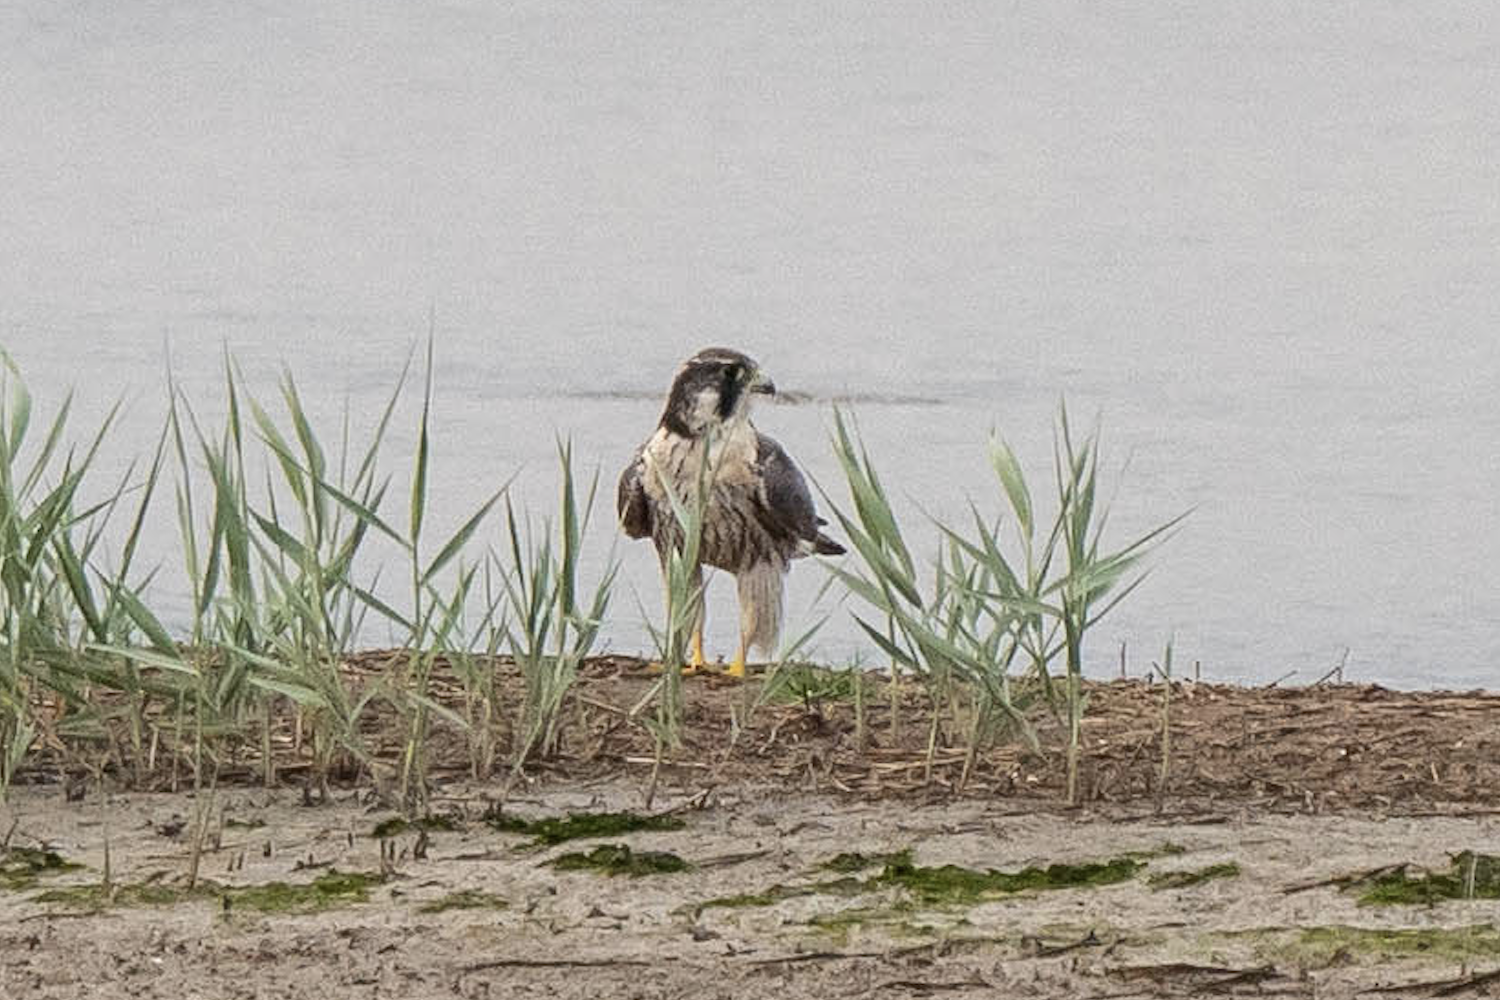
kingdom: Animalia
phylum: Chordata
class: Aves
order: Falconiformes
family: Falconidae
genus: Falco
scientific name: Falco peregrinus
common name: Peregrine falcon
